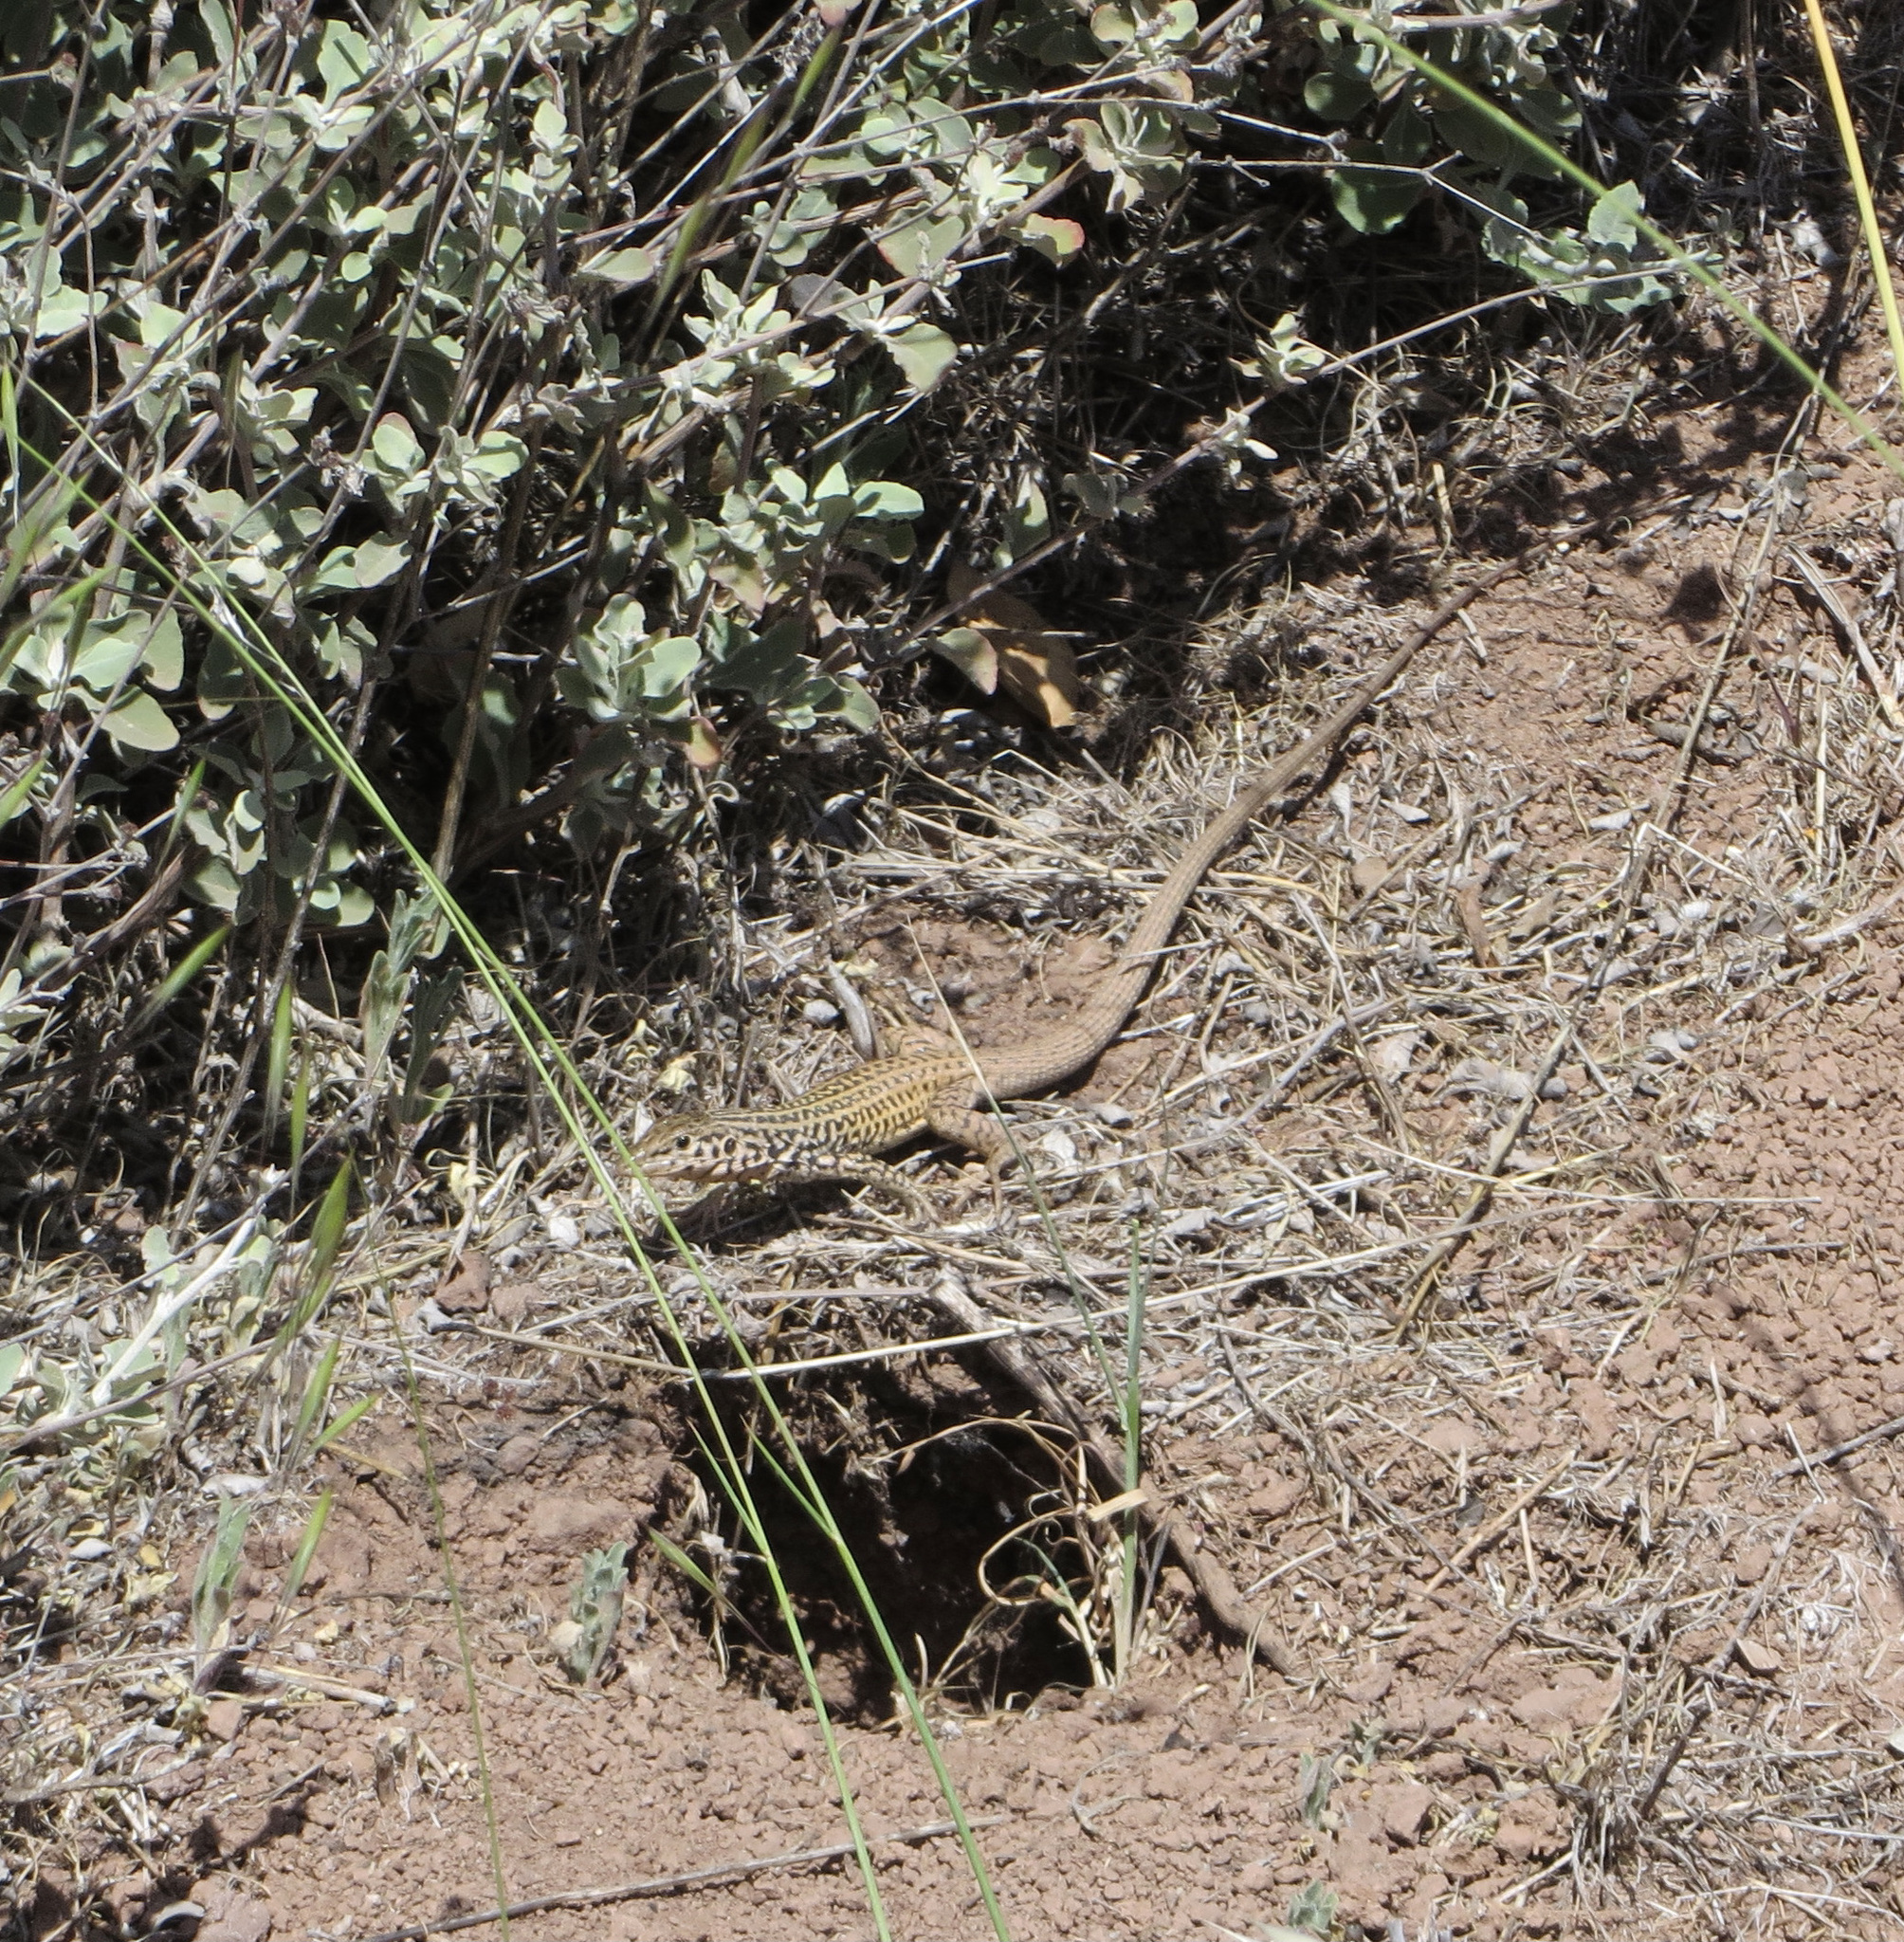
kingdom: Animalia
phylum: Chordata
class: Squamata
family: Teiidae
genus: Aspidoscelis
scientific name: Aspidoscelis tigris
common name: Tiger whiptail
